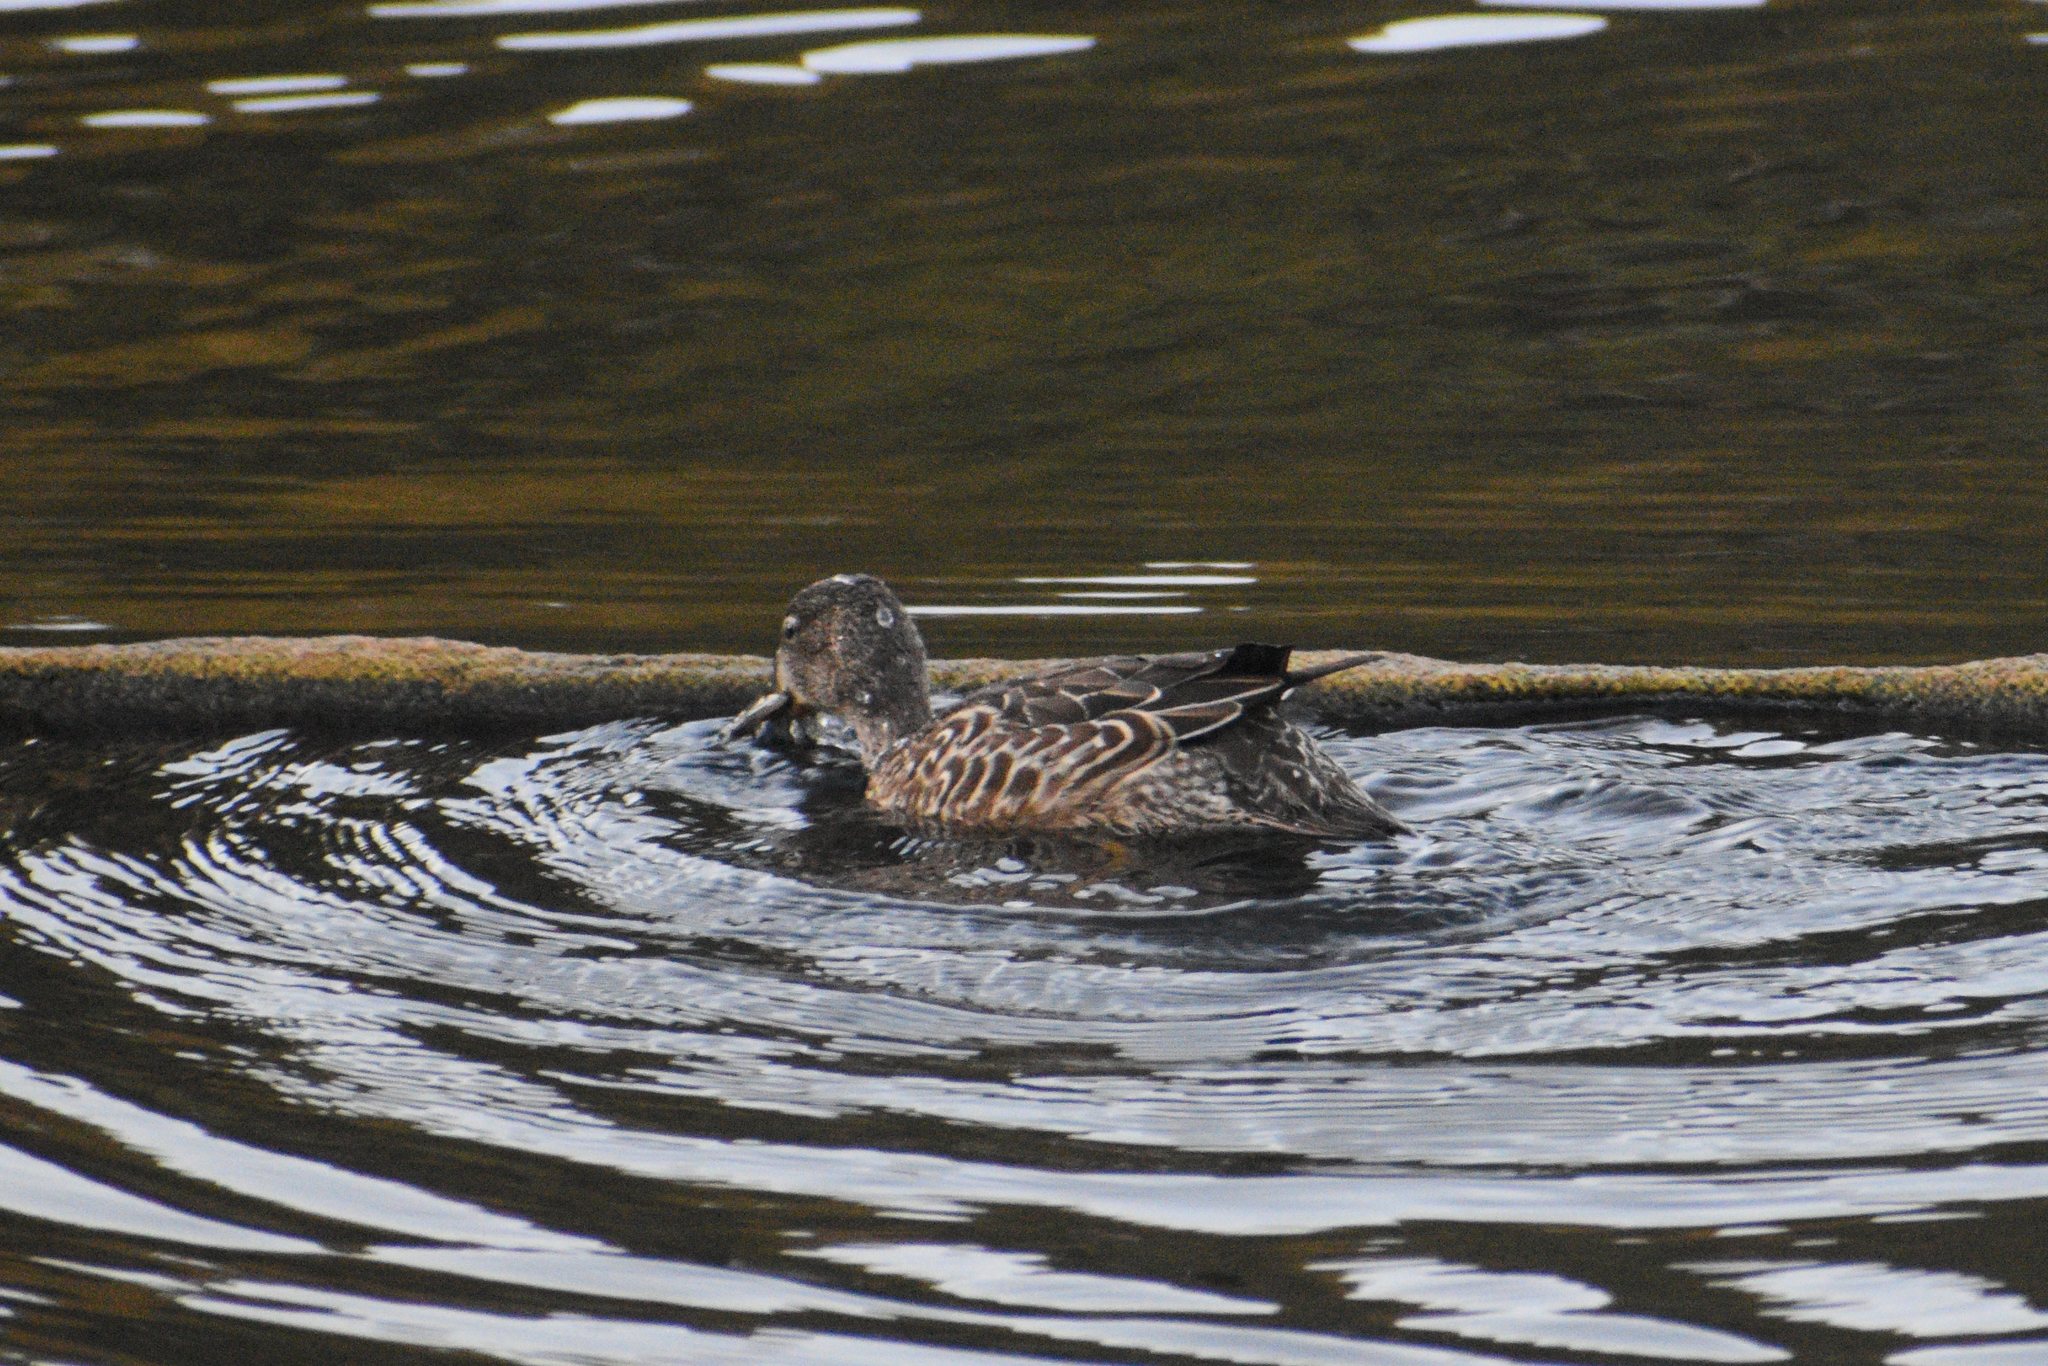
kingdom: Animalia
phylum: Chordata
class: Aves
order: Anseriformes
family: Anatidae
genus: Spatula
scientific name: Spatula discors
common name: Blue-winged teal
